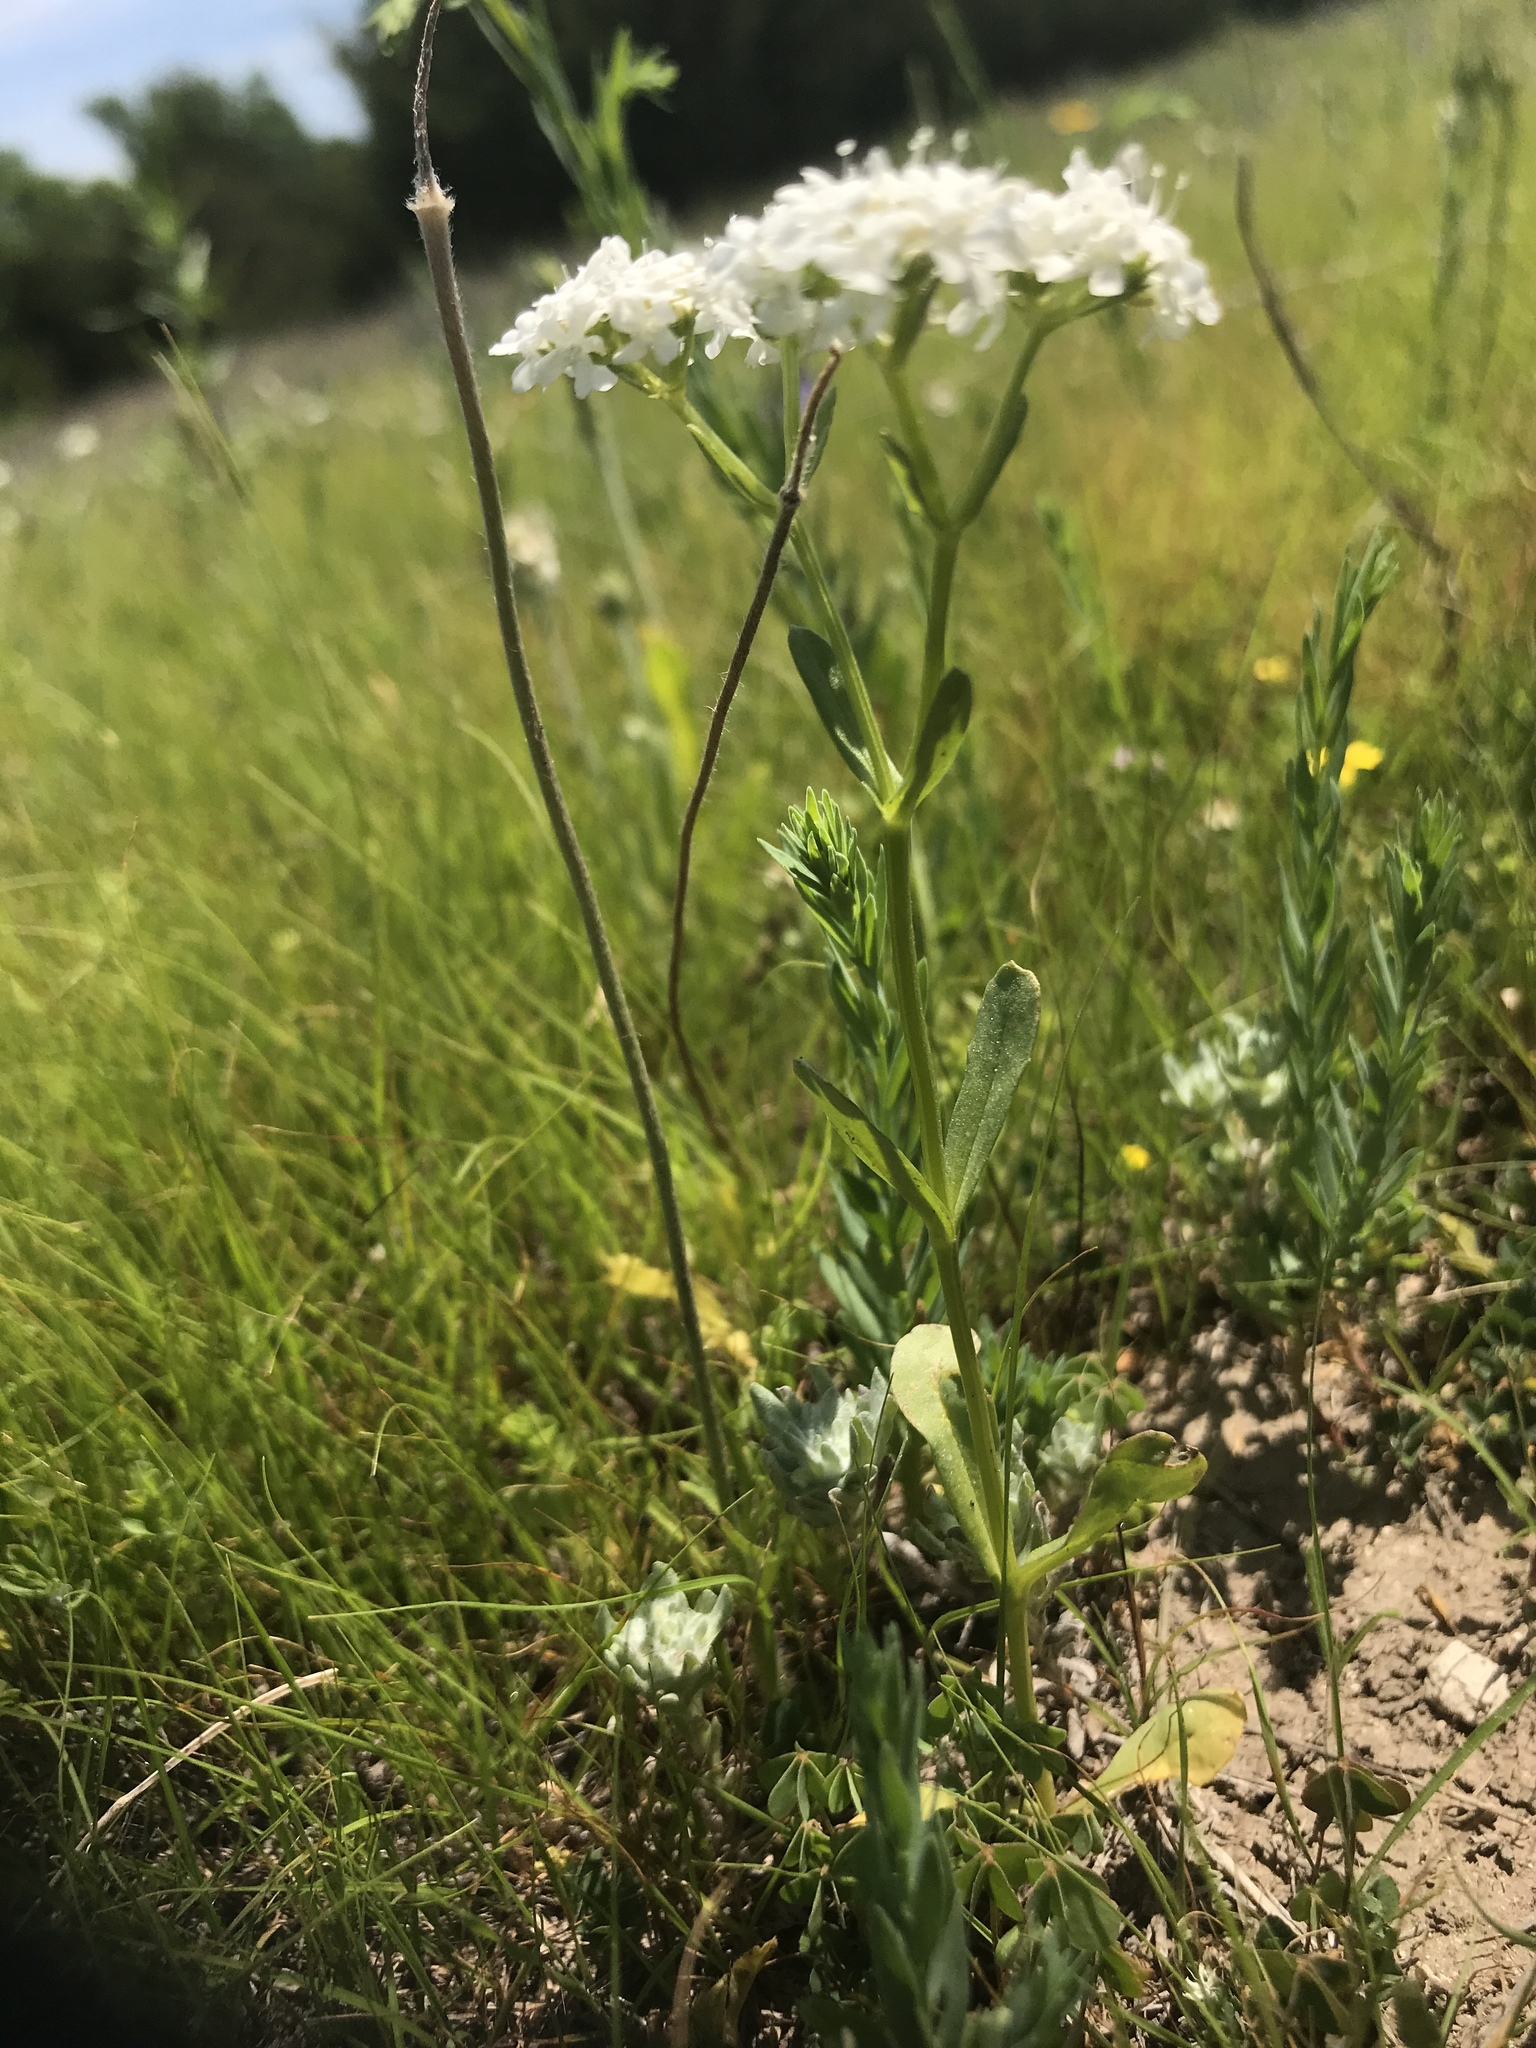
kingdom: Plantae
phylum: Tracheophyta
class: Magnoliopsida
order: Dipsacales
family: Caprifoliaceae
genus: Valerianella
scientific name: Valerianella amarella
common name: Hariy cornsalad
